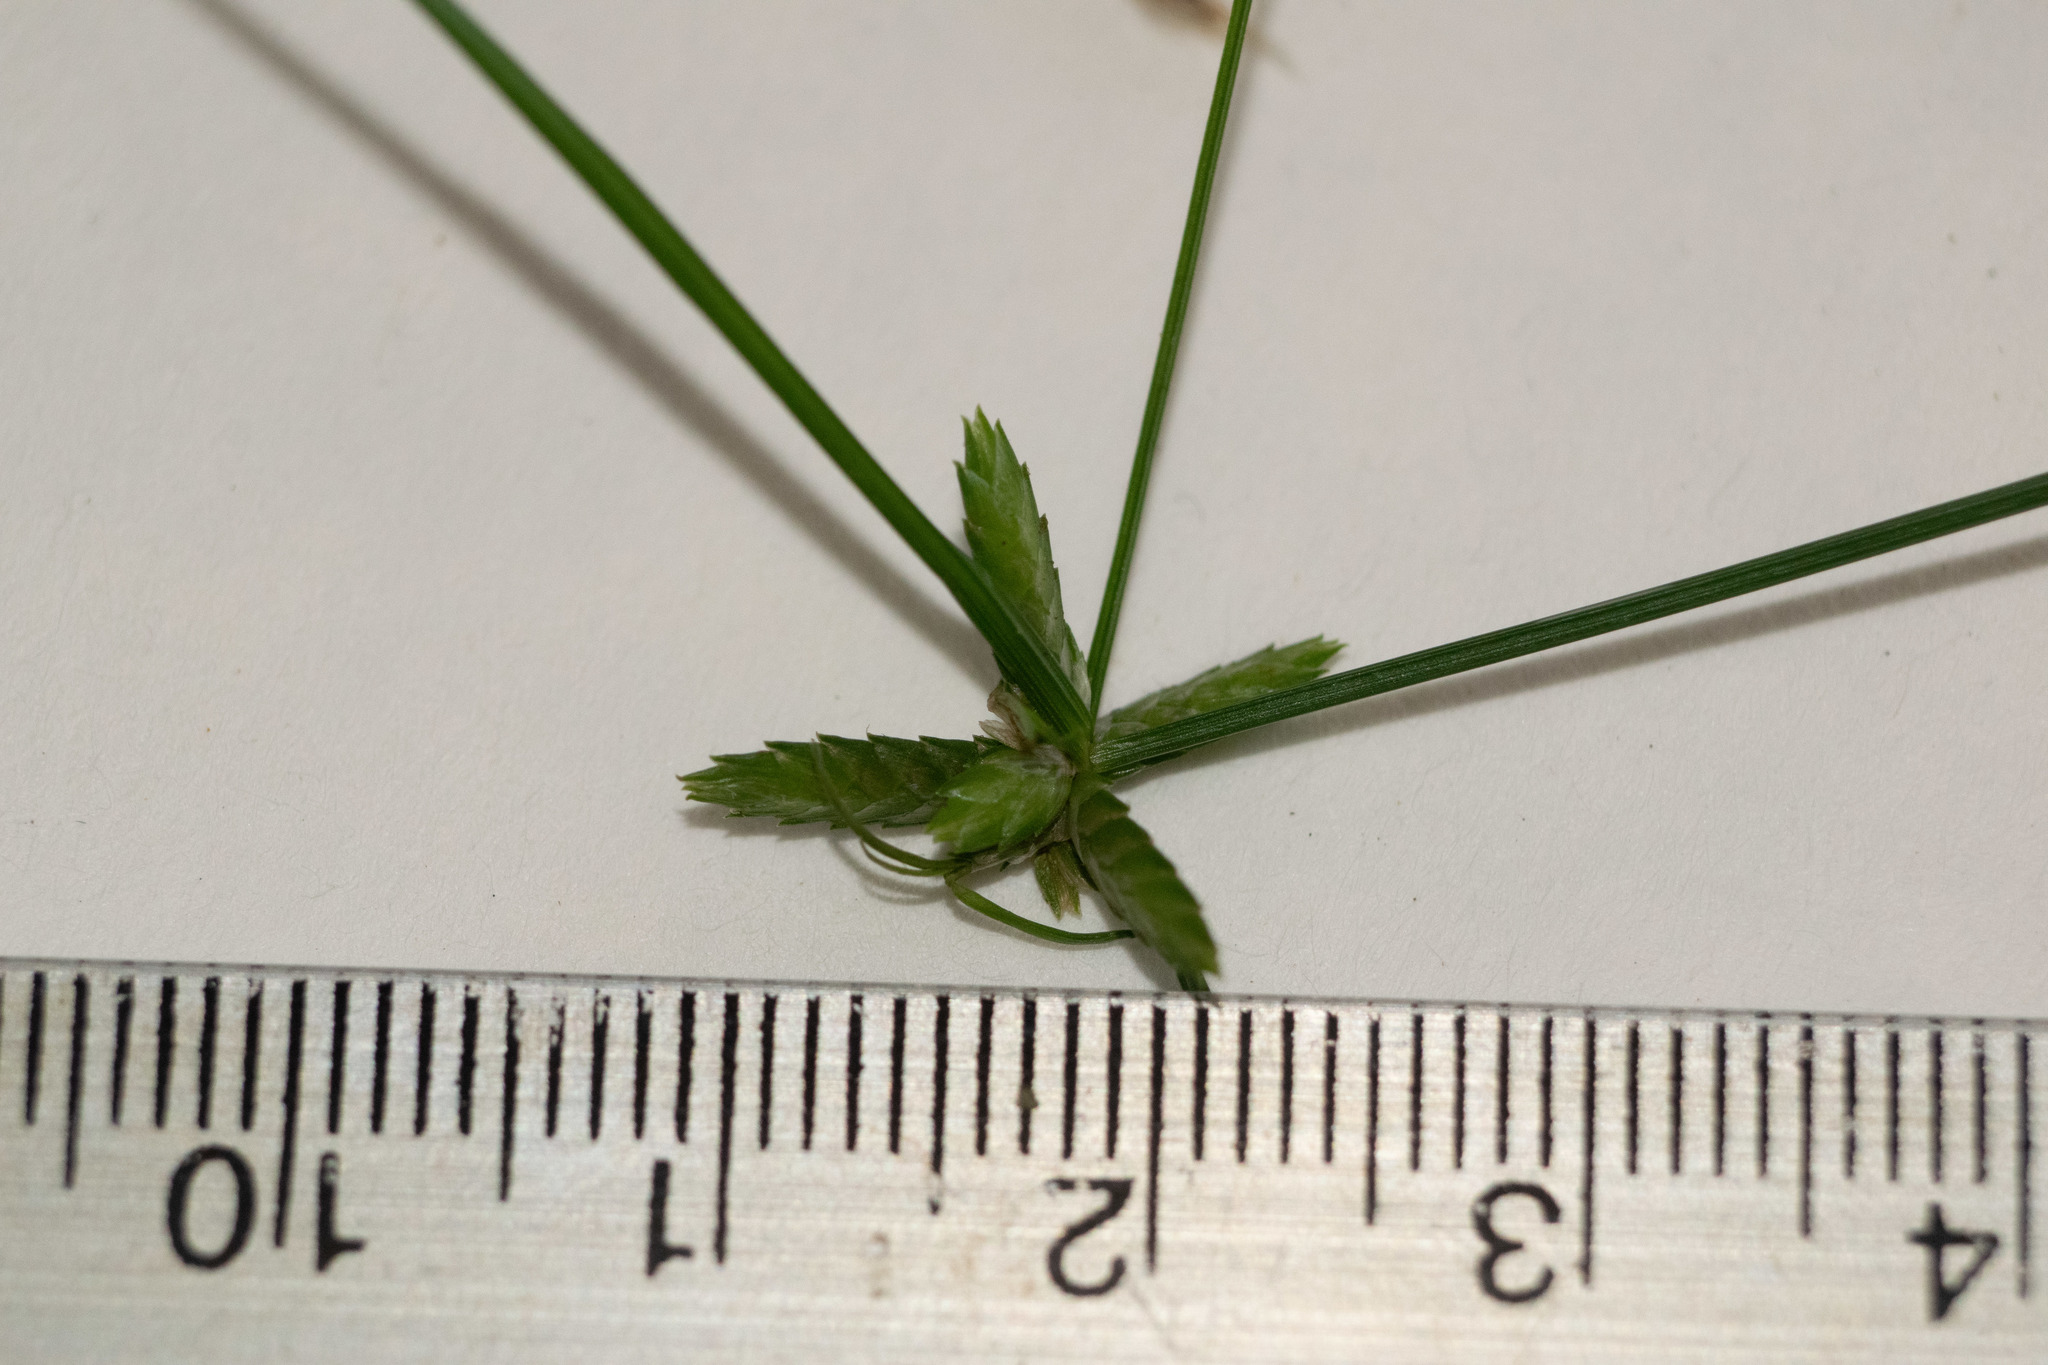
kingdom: Plantae
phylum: Tracheophyta
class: Liliopsida
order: Poales
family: Cyperaceae
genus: Cyperus
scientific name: Cyperus gracilis
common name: Slimjim flatsedge
